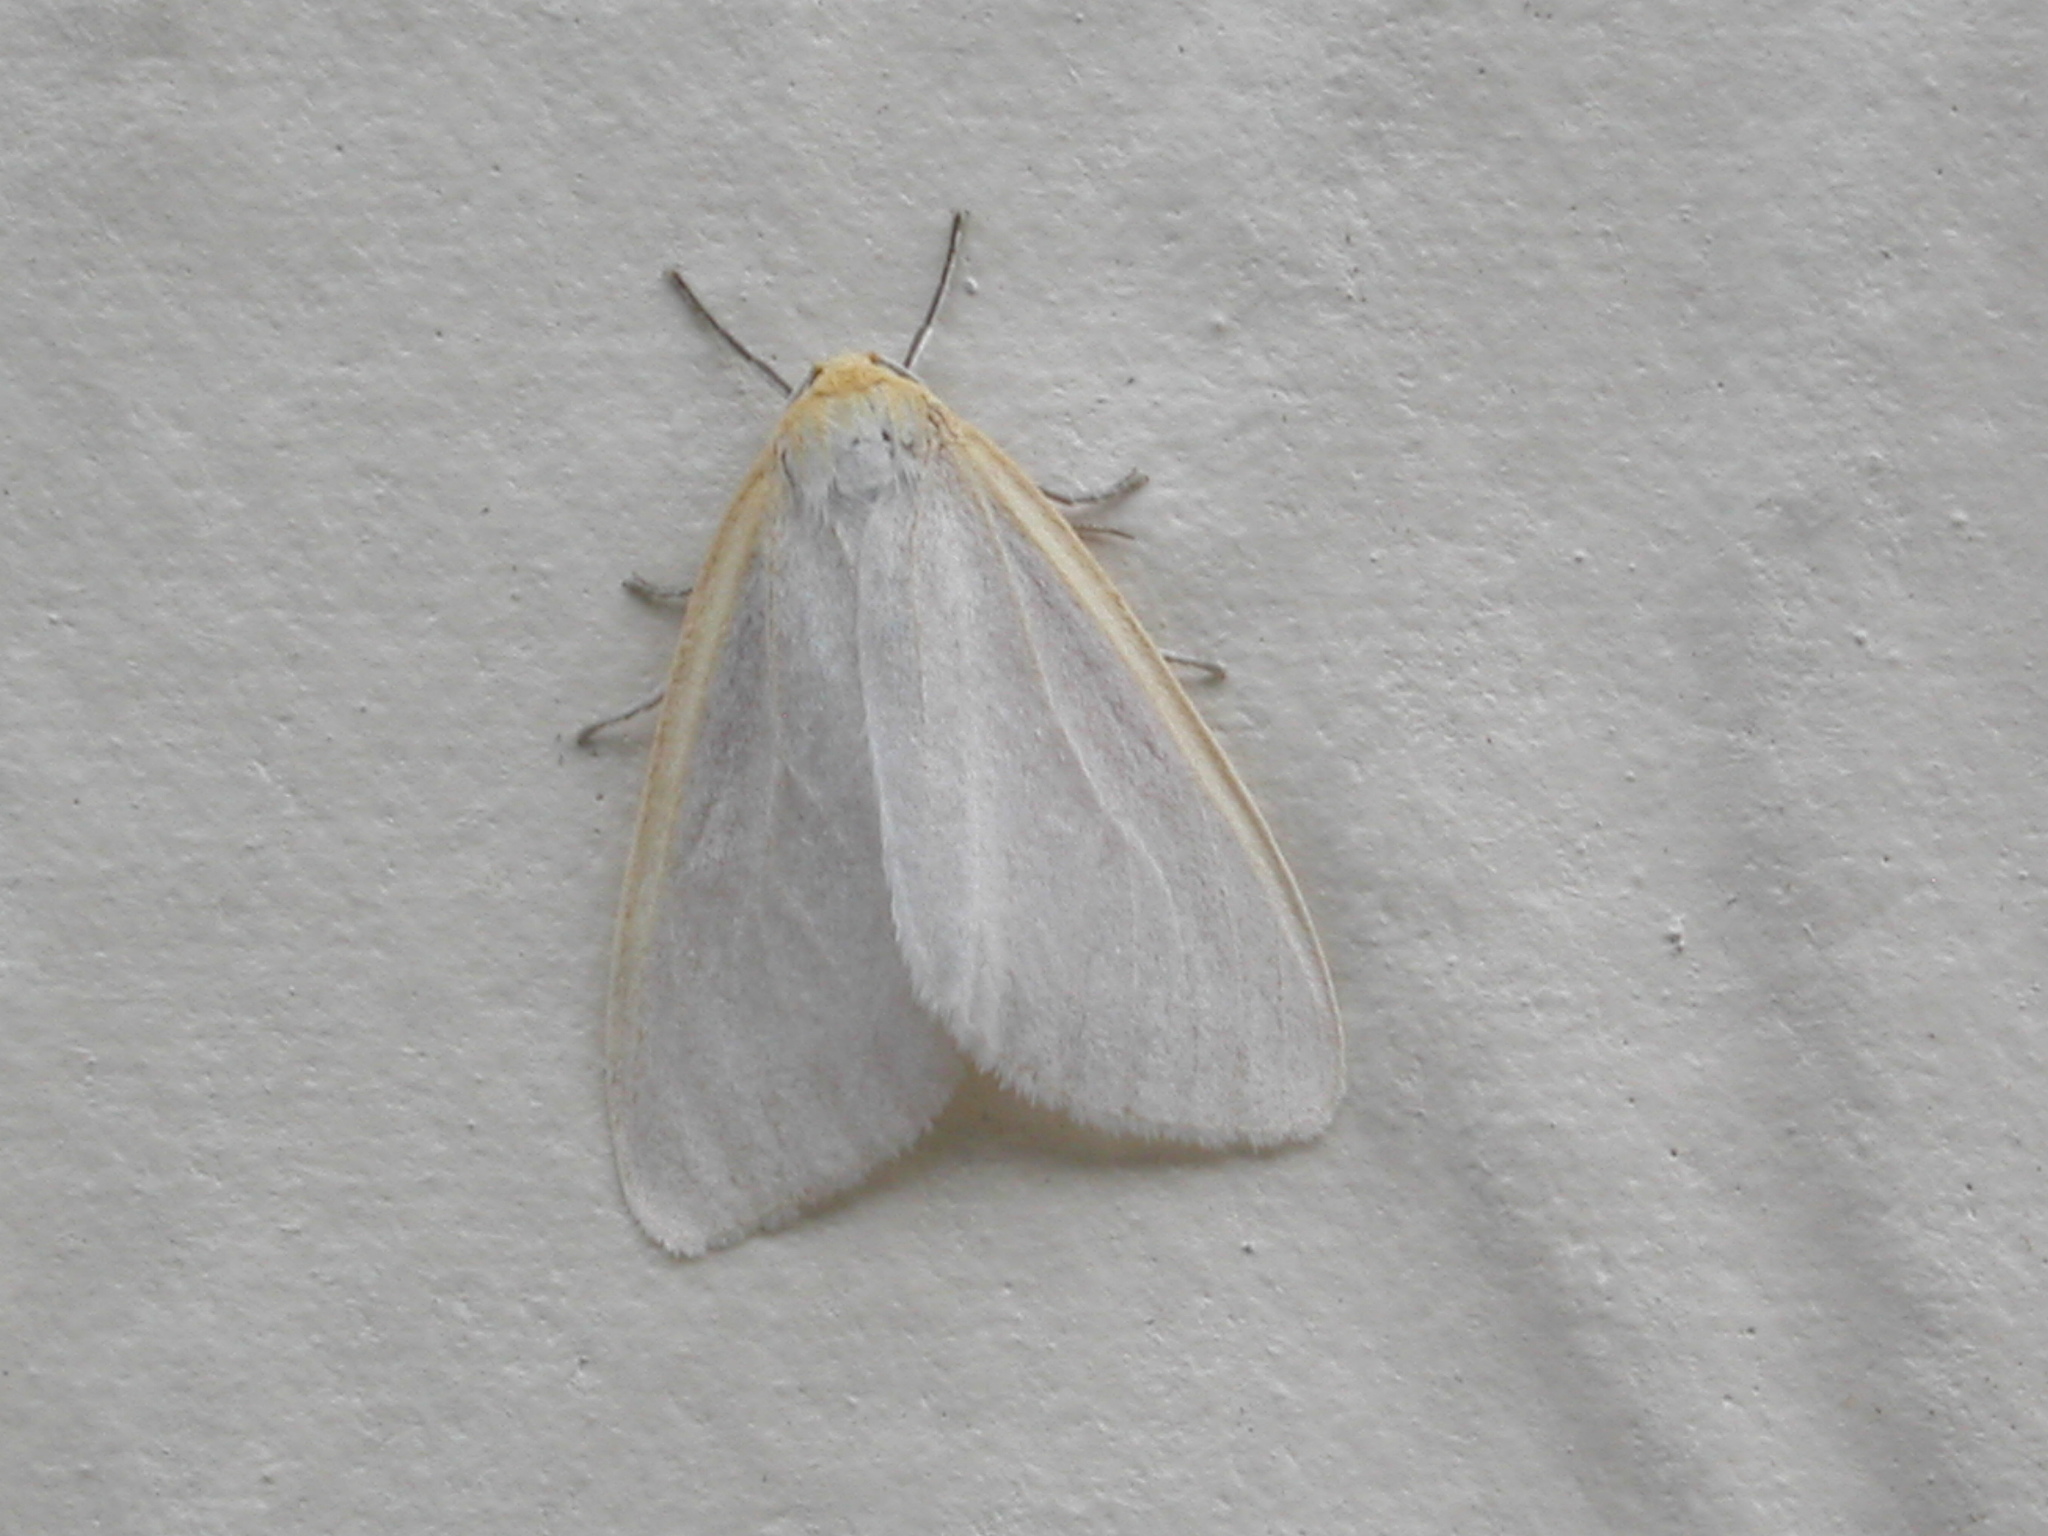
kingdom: Animalia
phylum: Arthropoda
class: Insecta
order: Lepidoptera
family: Erebidae
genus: Cycnia
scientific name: Cycnia tenera
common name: Delicate cycnia moth
